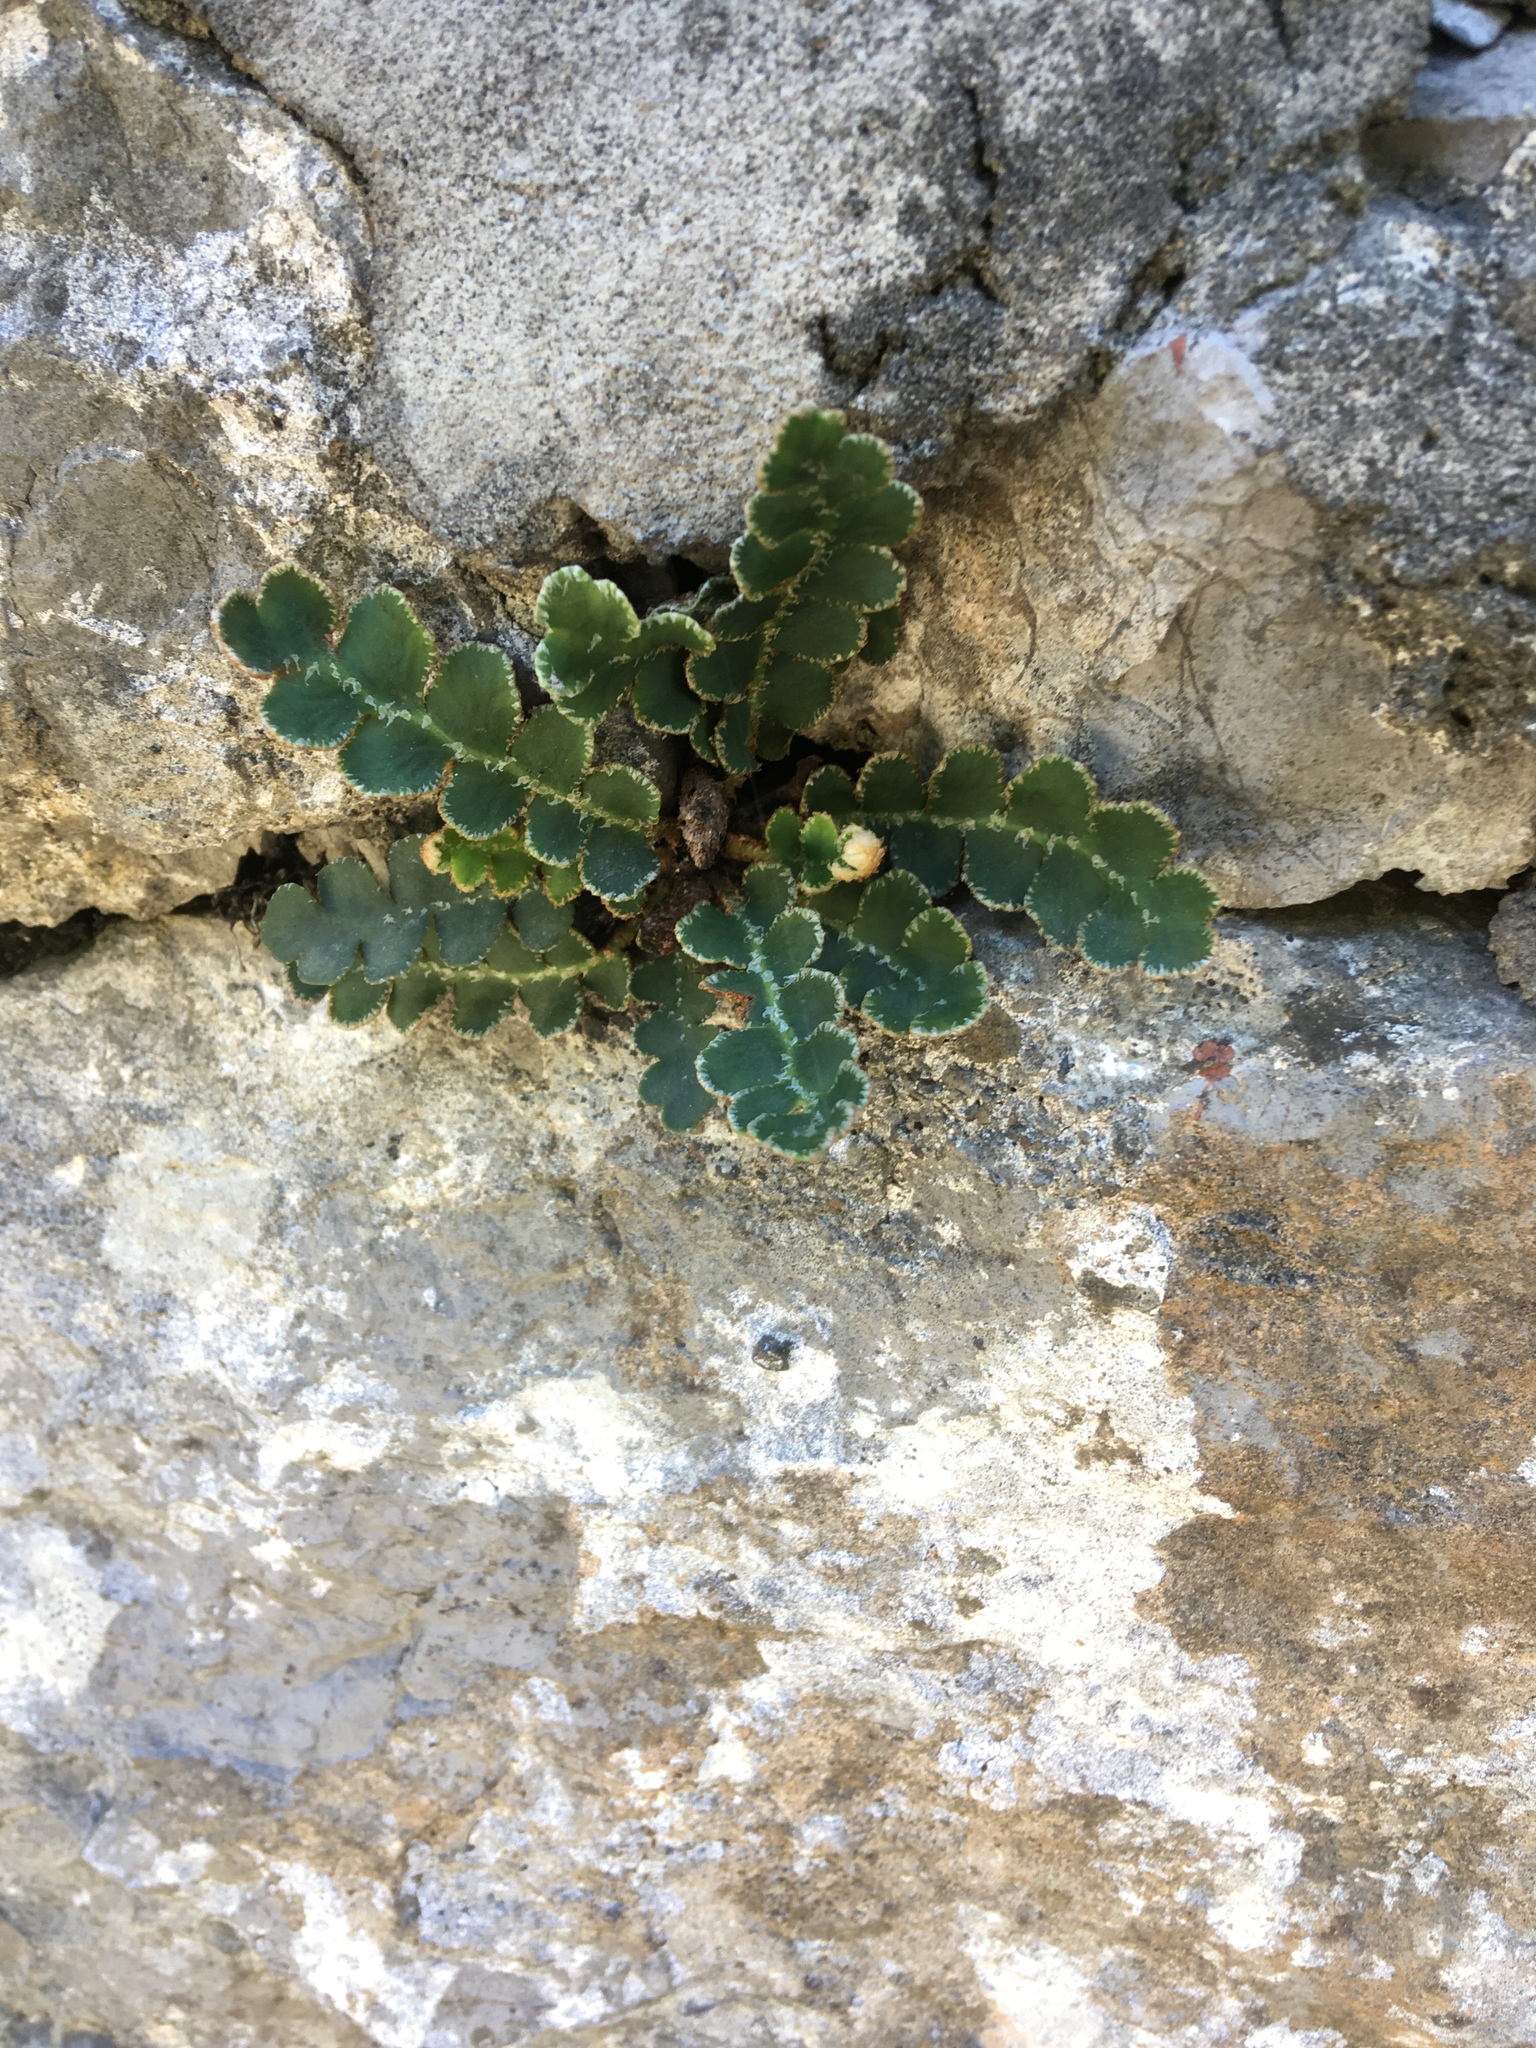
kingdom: Plantae
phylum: Tracheophyta
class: Polypodiopsida
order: Polypodiales
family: Aspleniaceae
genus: Asplenium
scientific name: Asplenium ceterach
